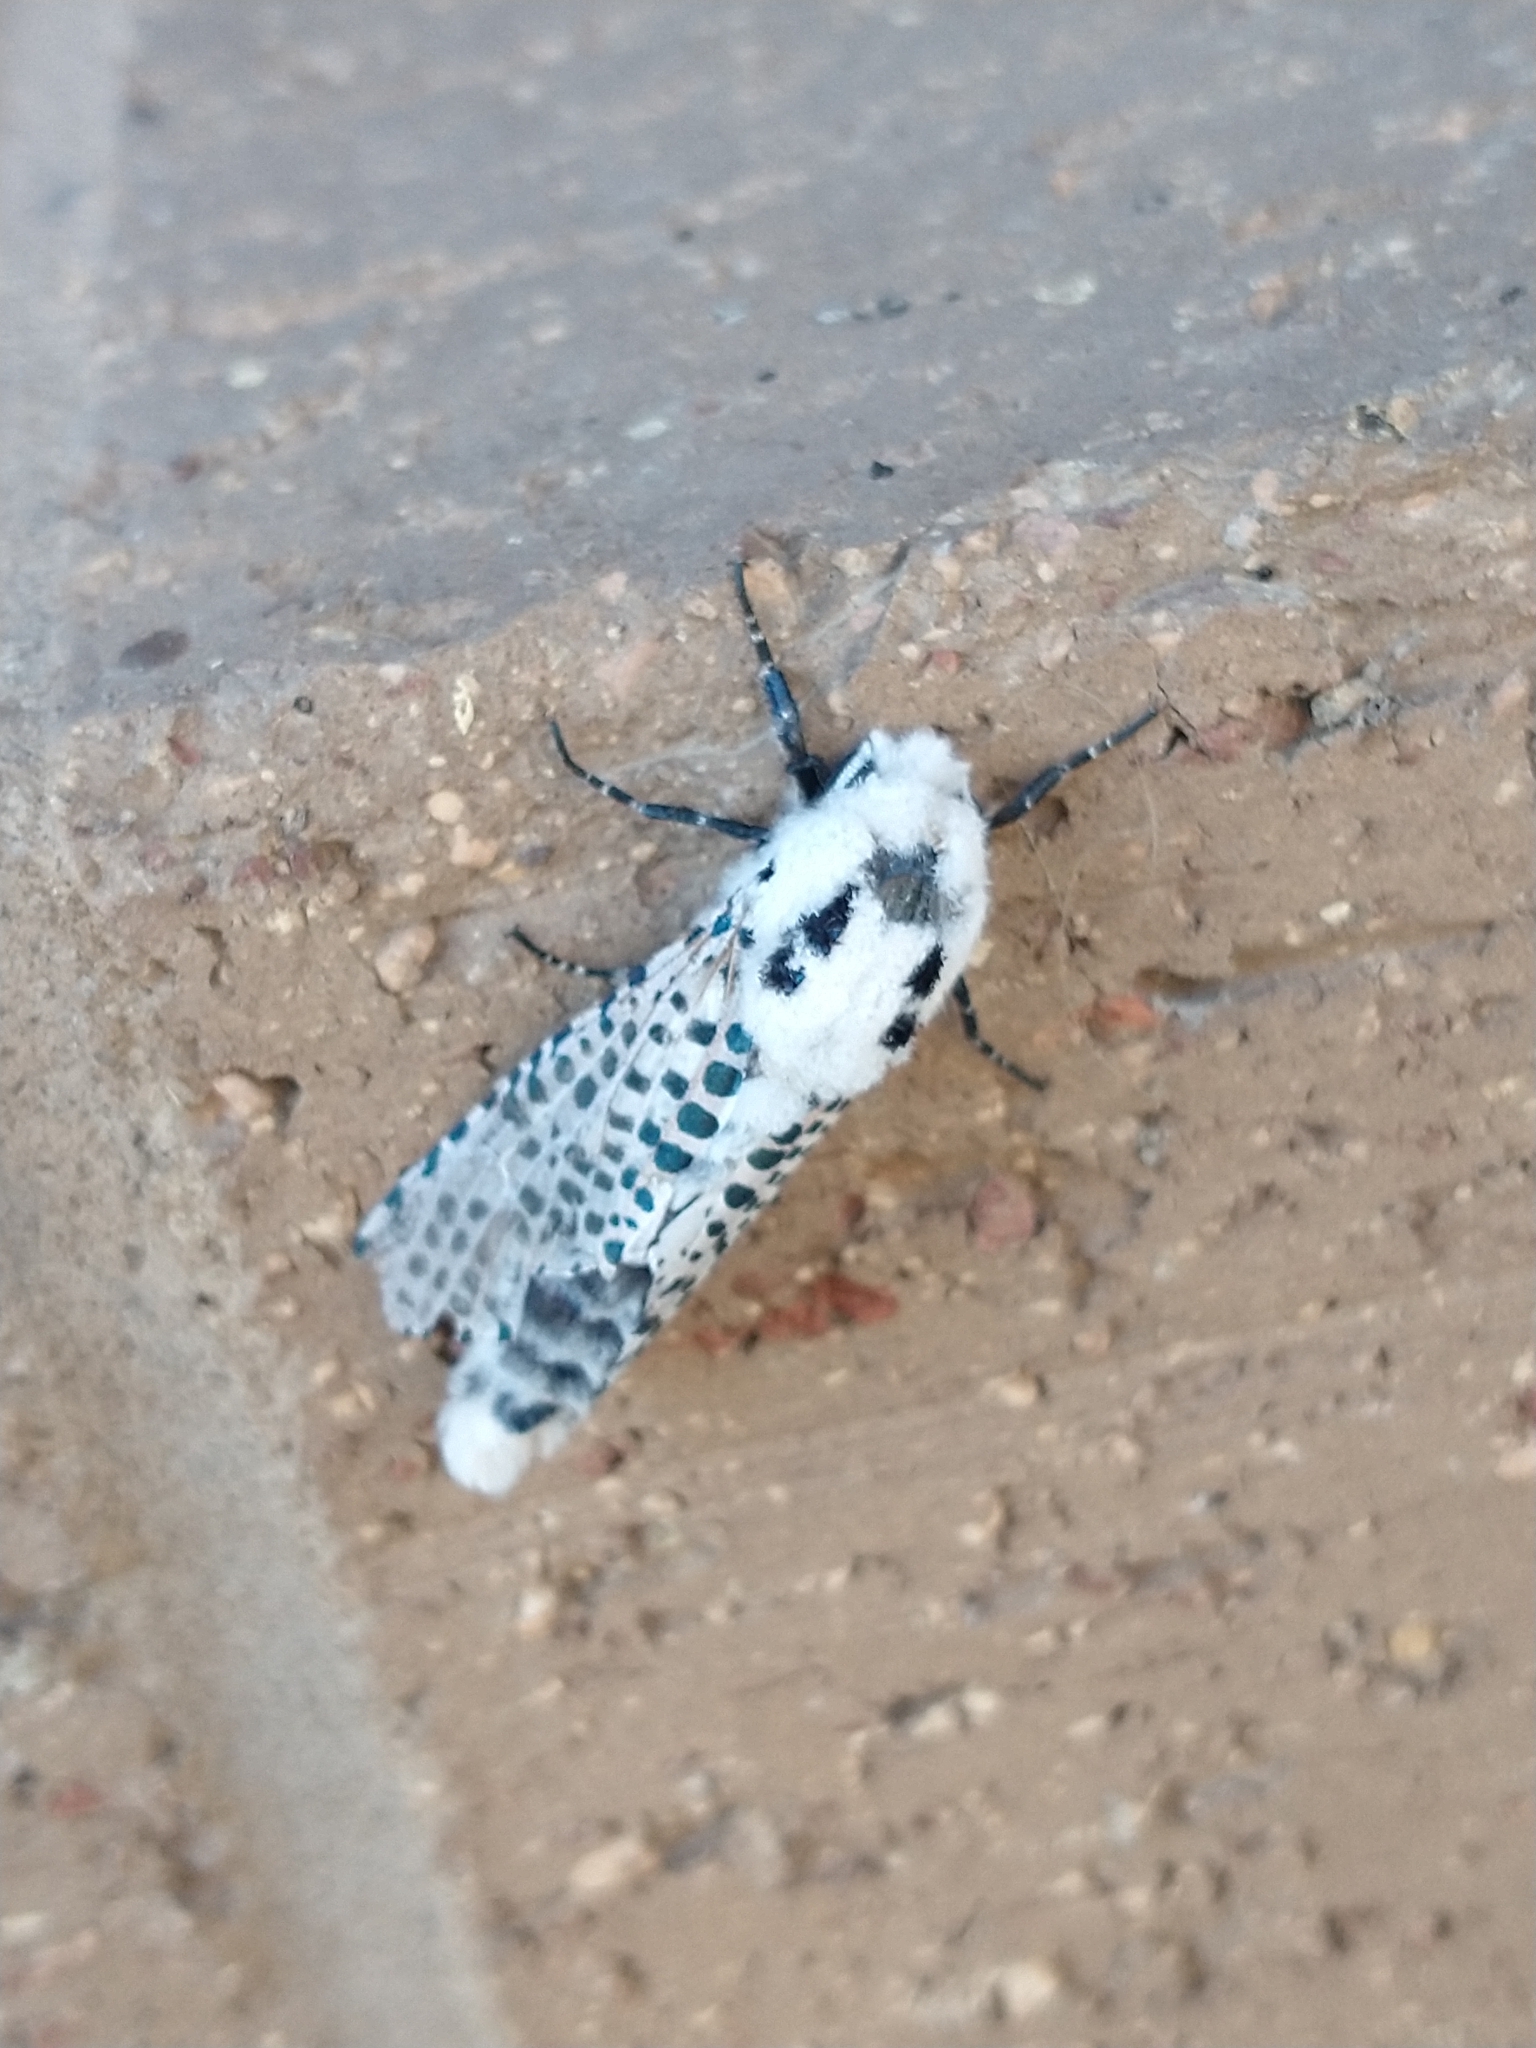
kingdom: Animalia
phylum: Arthropoda
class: Insecta
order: Lepidoptera
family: Cossidae
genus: Zeuzera
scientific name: Zeuzera pyrina
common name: Leopard moth
